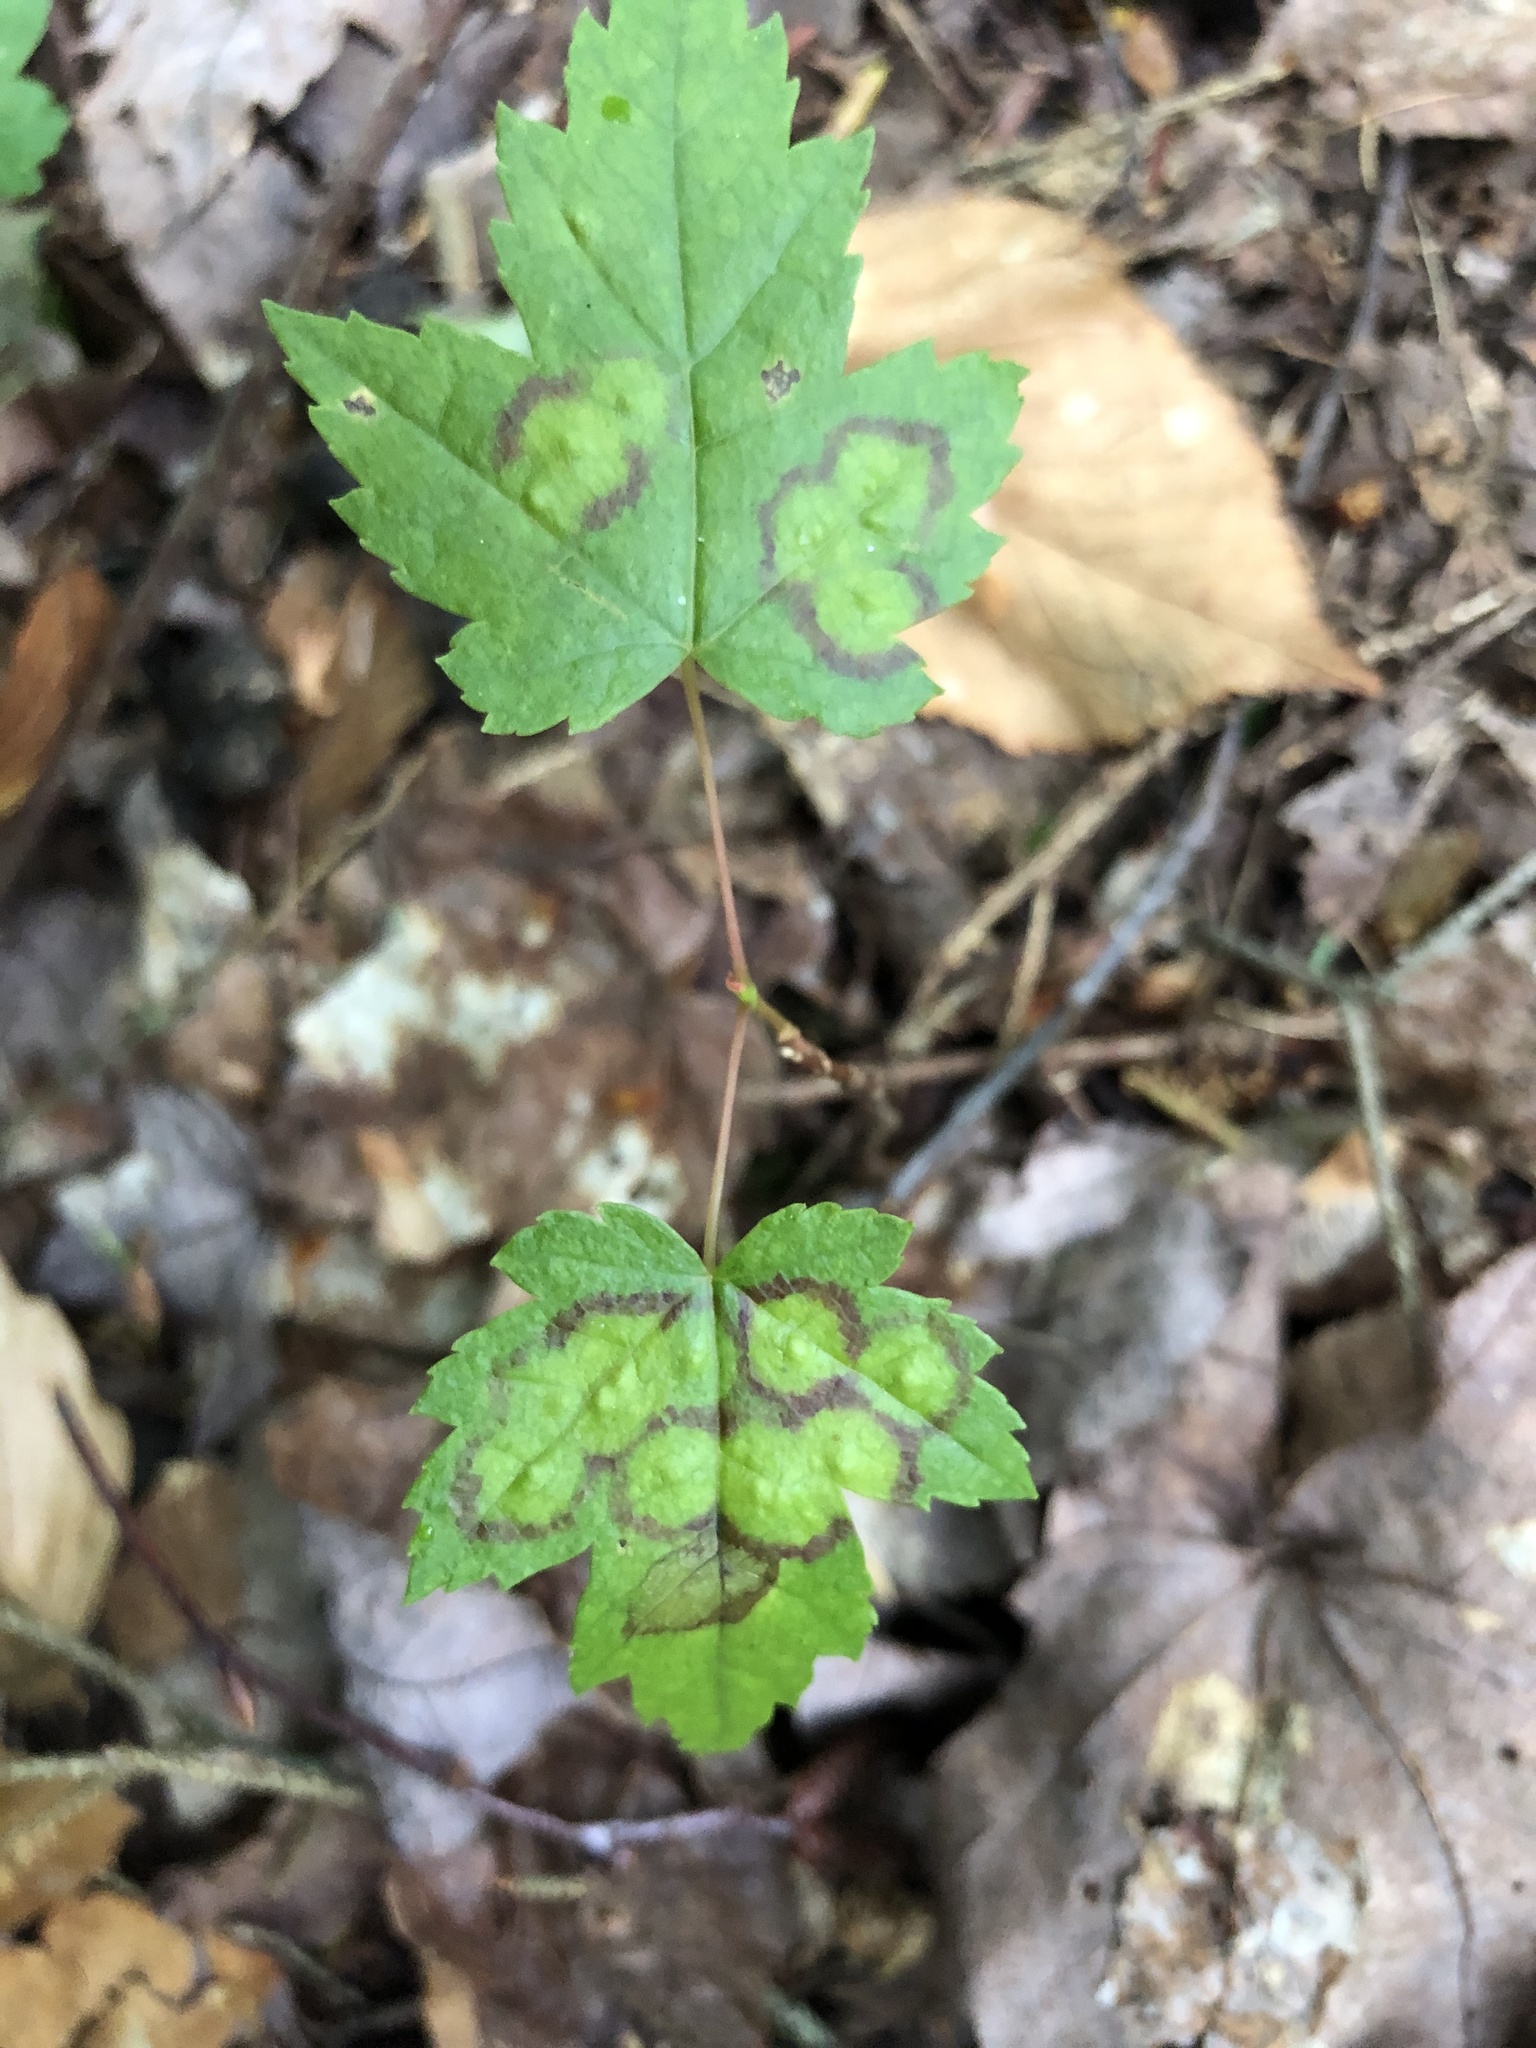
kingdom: Animalia
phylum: Arthropoda
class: Insecta
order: Diptera
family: Cecidomyiidae
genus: Acericecis
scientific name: Acericecis ocellaris
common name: Ocellate gall midge
